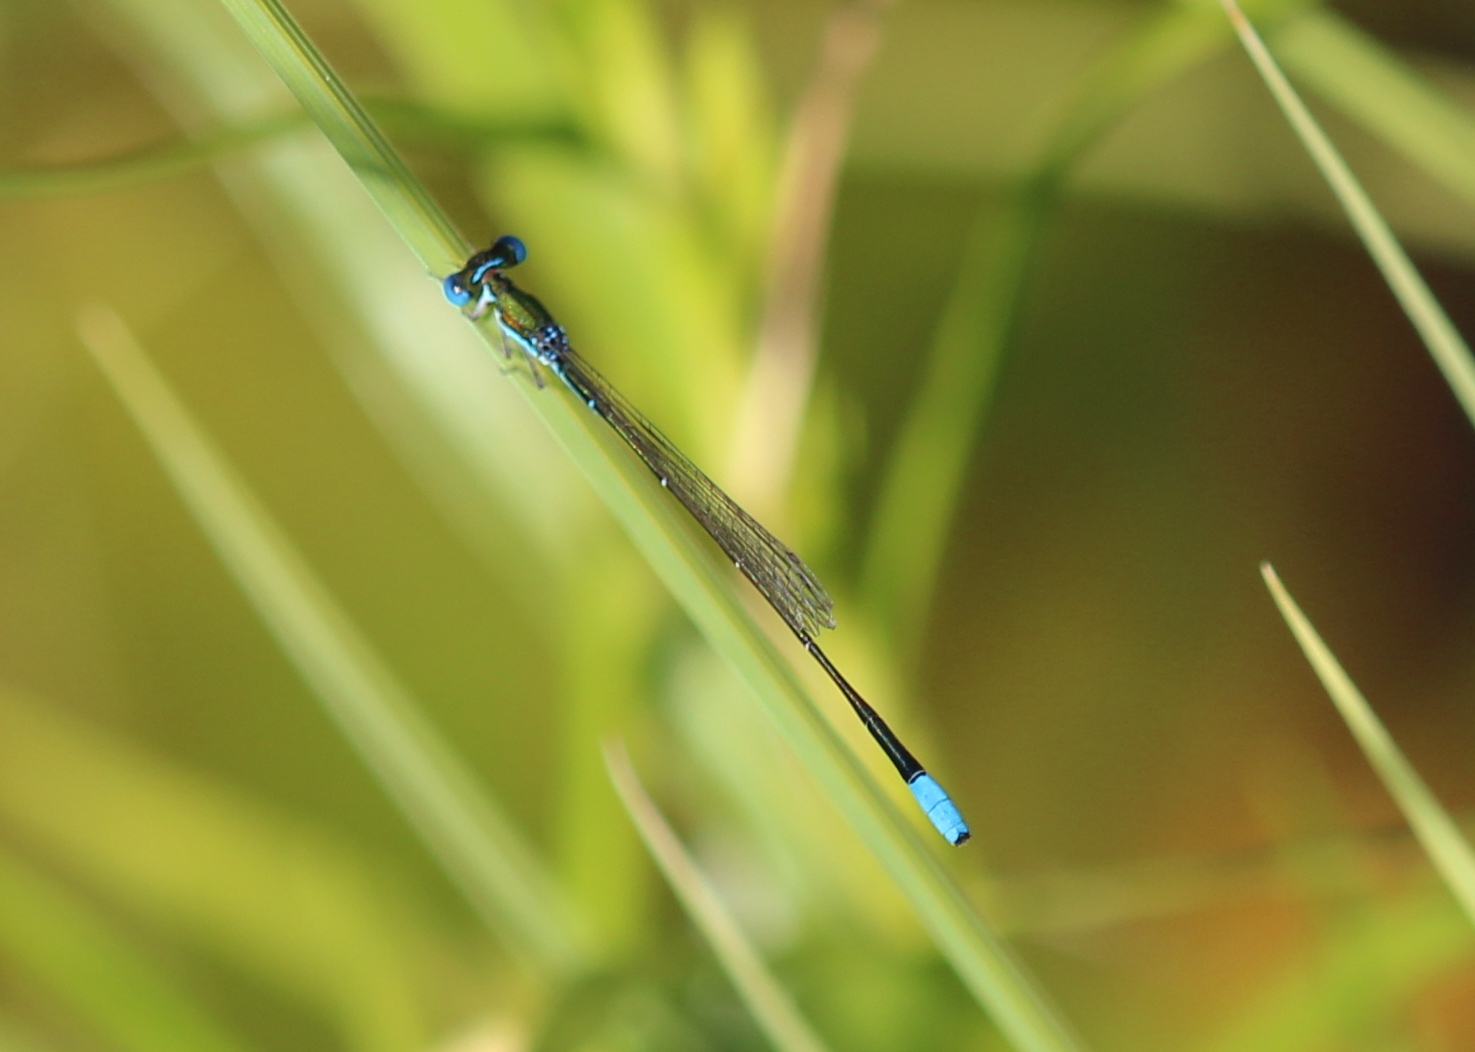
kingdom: Animalia
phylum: Arthropoda
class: Insecta
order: Odonata
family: Coenagrionidae
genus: Nehalennia
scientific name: Nehalennia gracilis
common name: Sphagnum sprite
